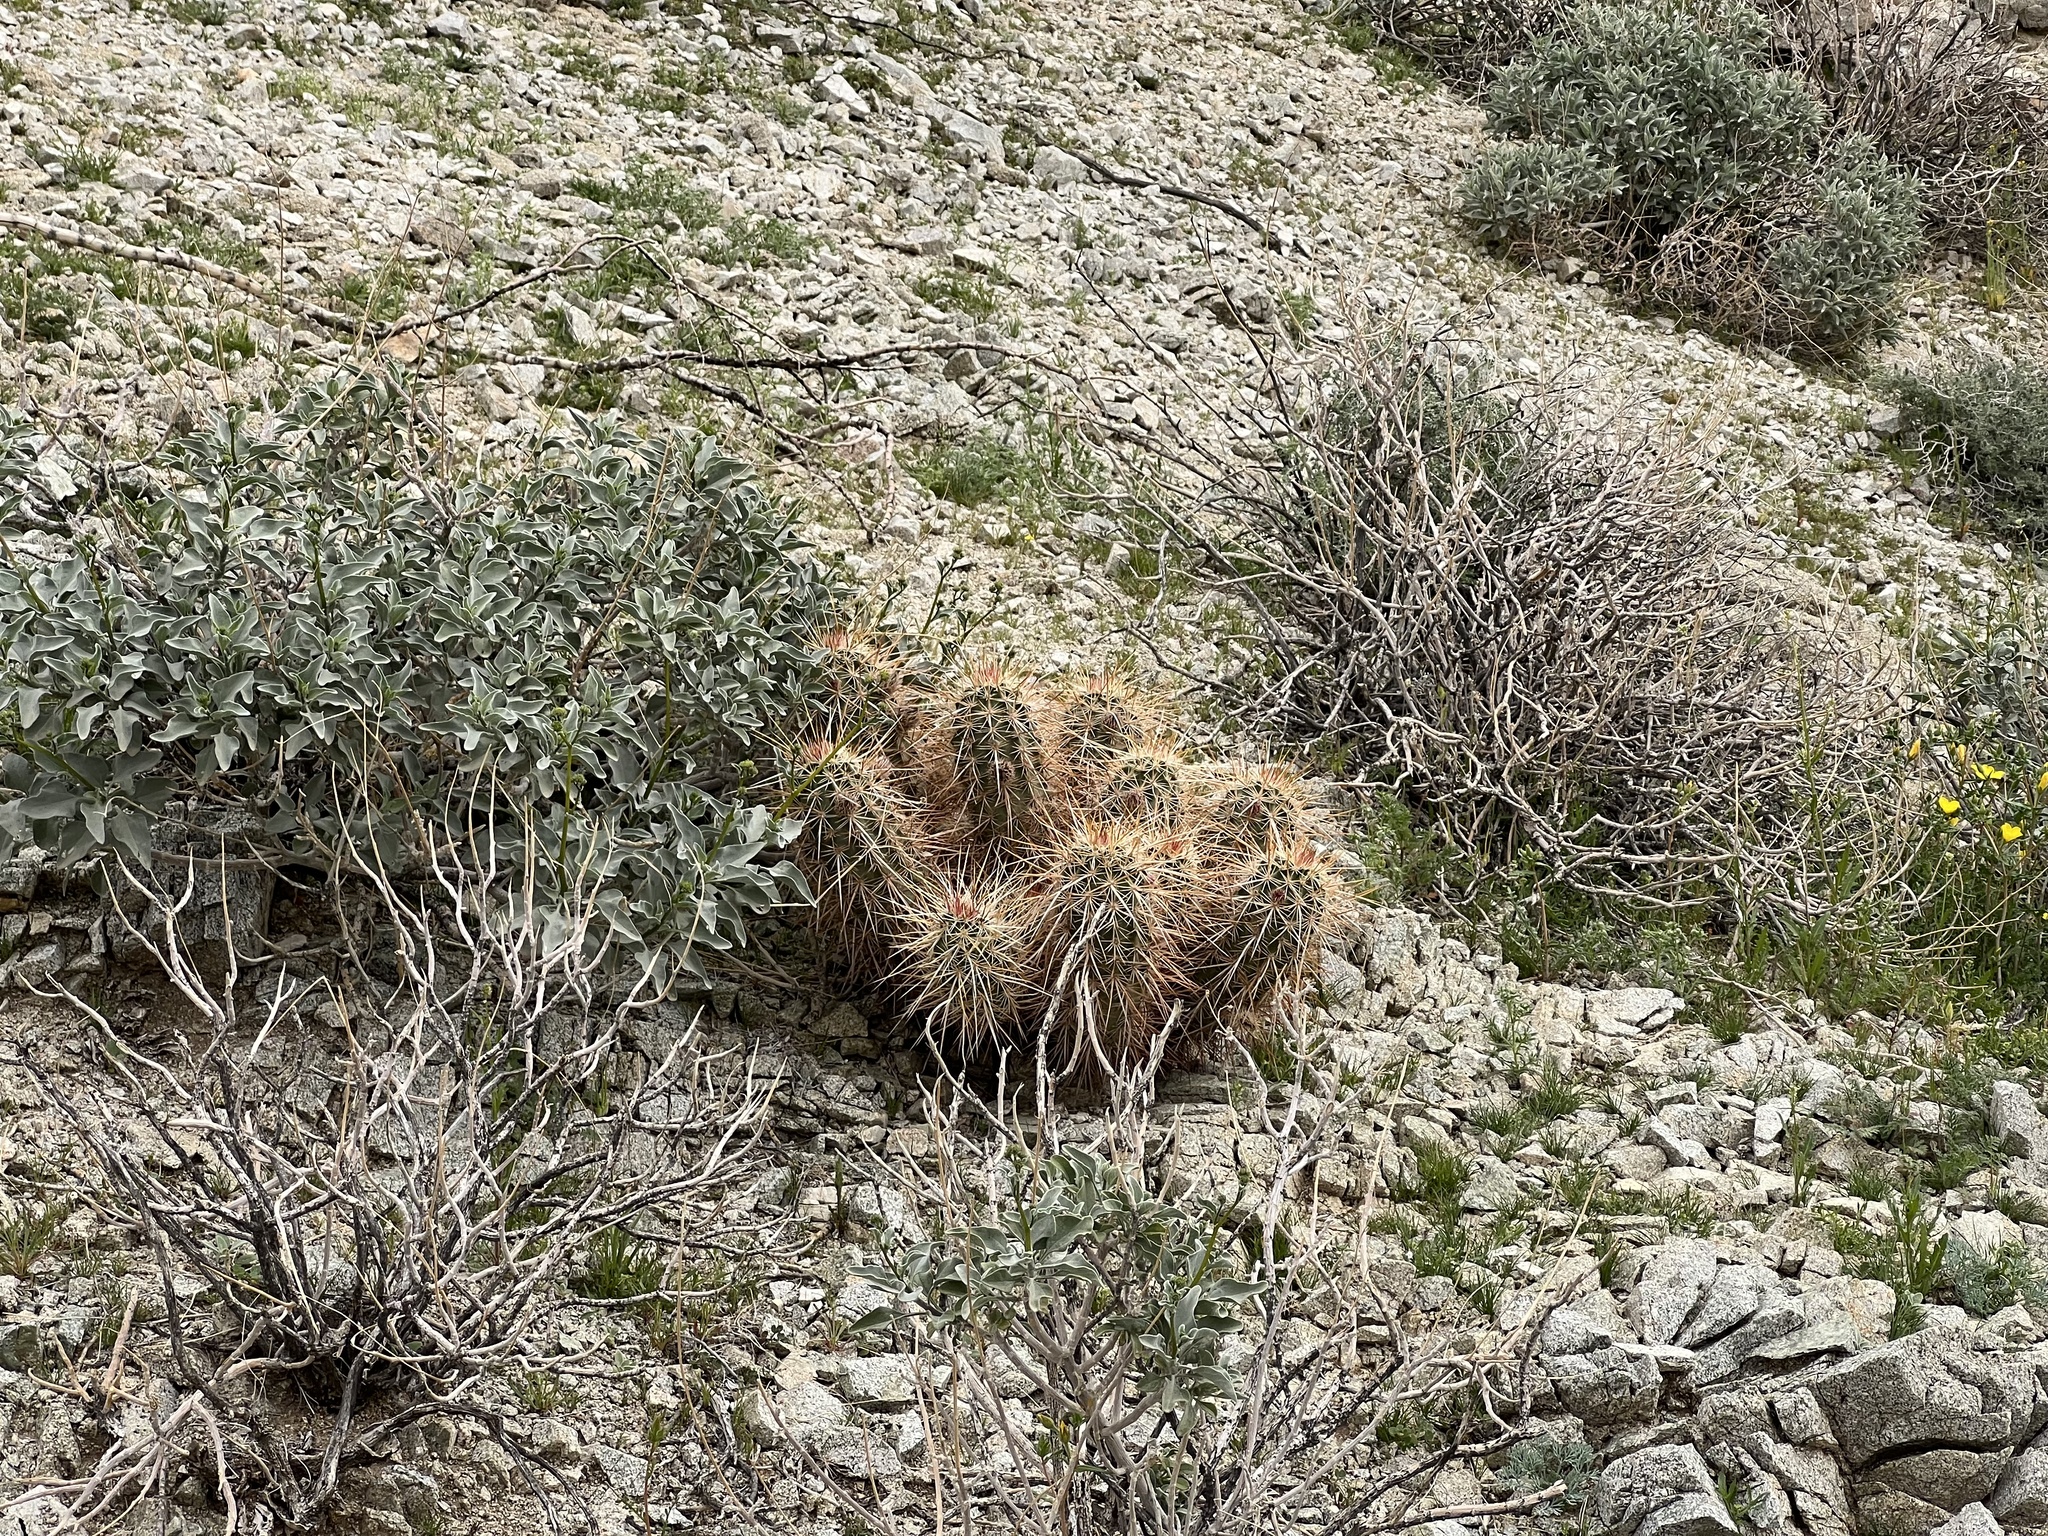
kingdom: Plantae
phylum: Tracheophyta
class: Magnoliopsida
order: Caryophyllales
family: Cactaceae
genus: Echinocereus
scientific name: Echinocereus engelmannii
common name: Engelmann's hedgehog cactus
